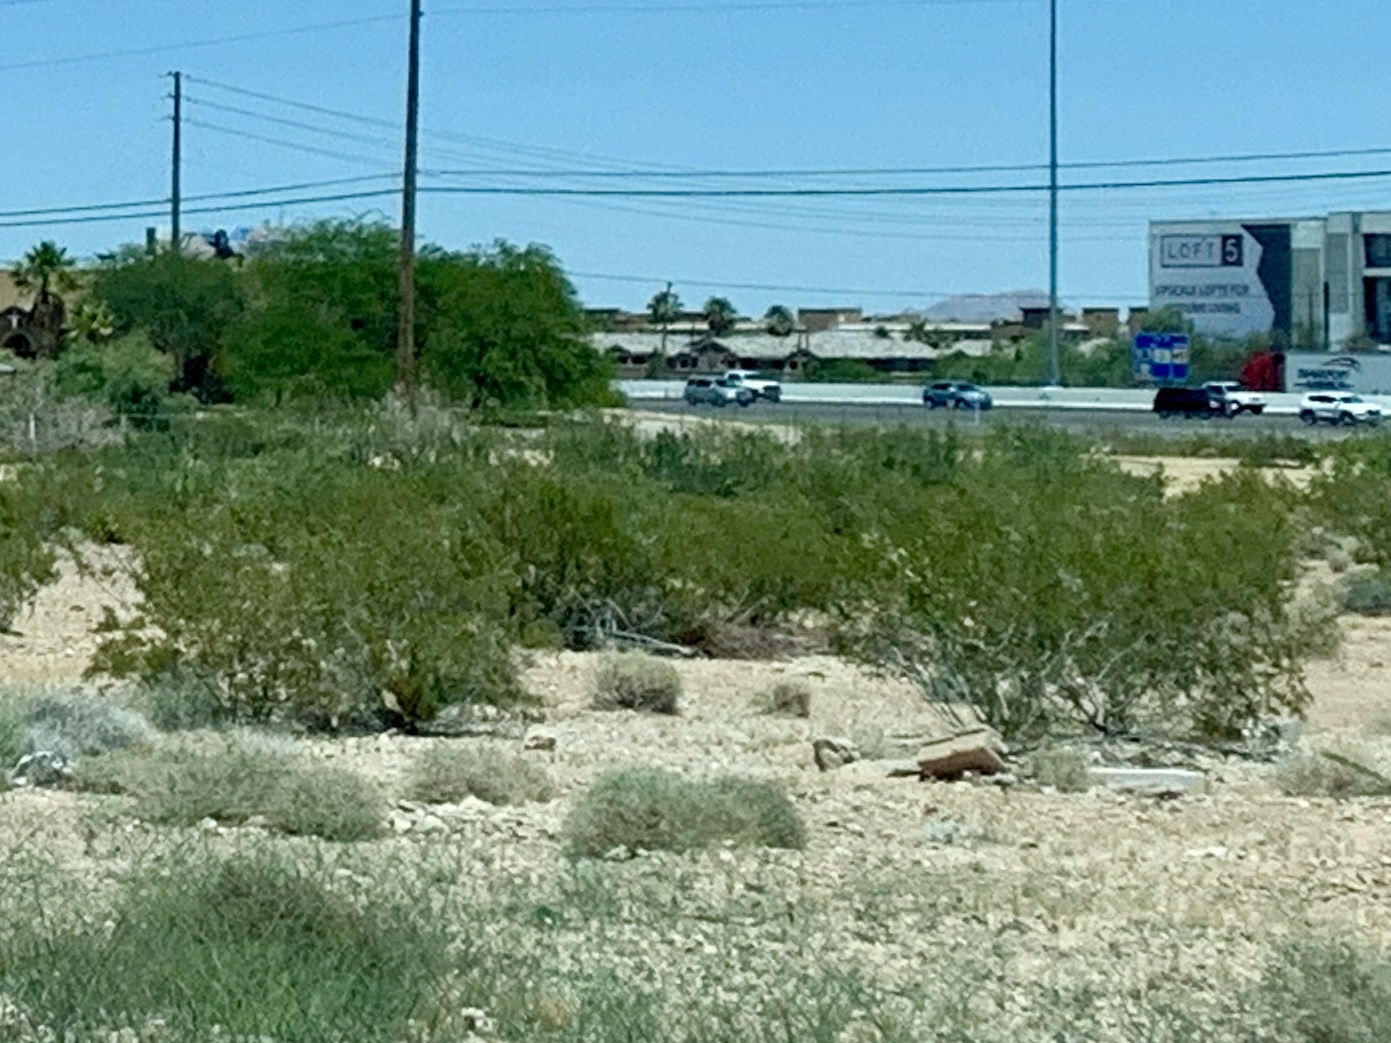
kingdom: Plantae
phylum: Tracheophyta
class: Magnoliopsida
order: Zygophyllales
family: Zygophyllaceae
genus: Larrea
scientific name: Larrea tridentata
